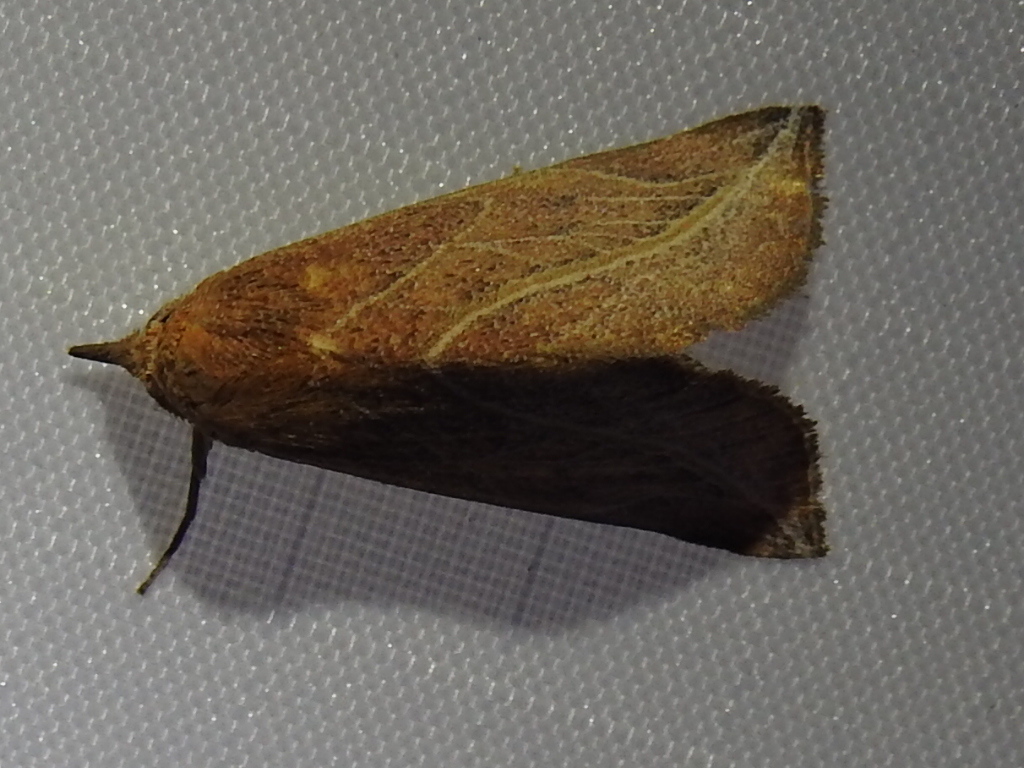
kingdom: Animalia
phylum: Arthropoda
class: Insecta
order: Lepidoptera
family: Erebidae
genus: Phyprosopus
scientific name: Phyprosopus callitrichoides
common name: Curved-lined owlet
